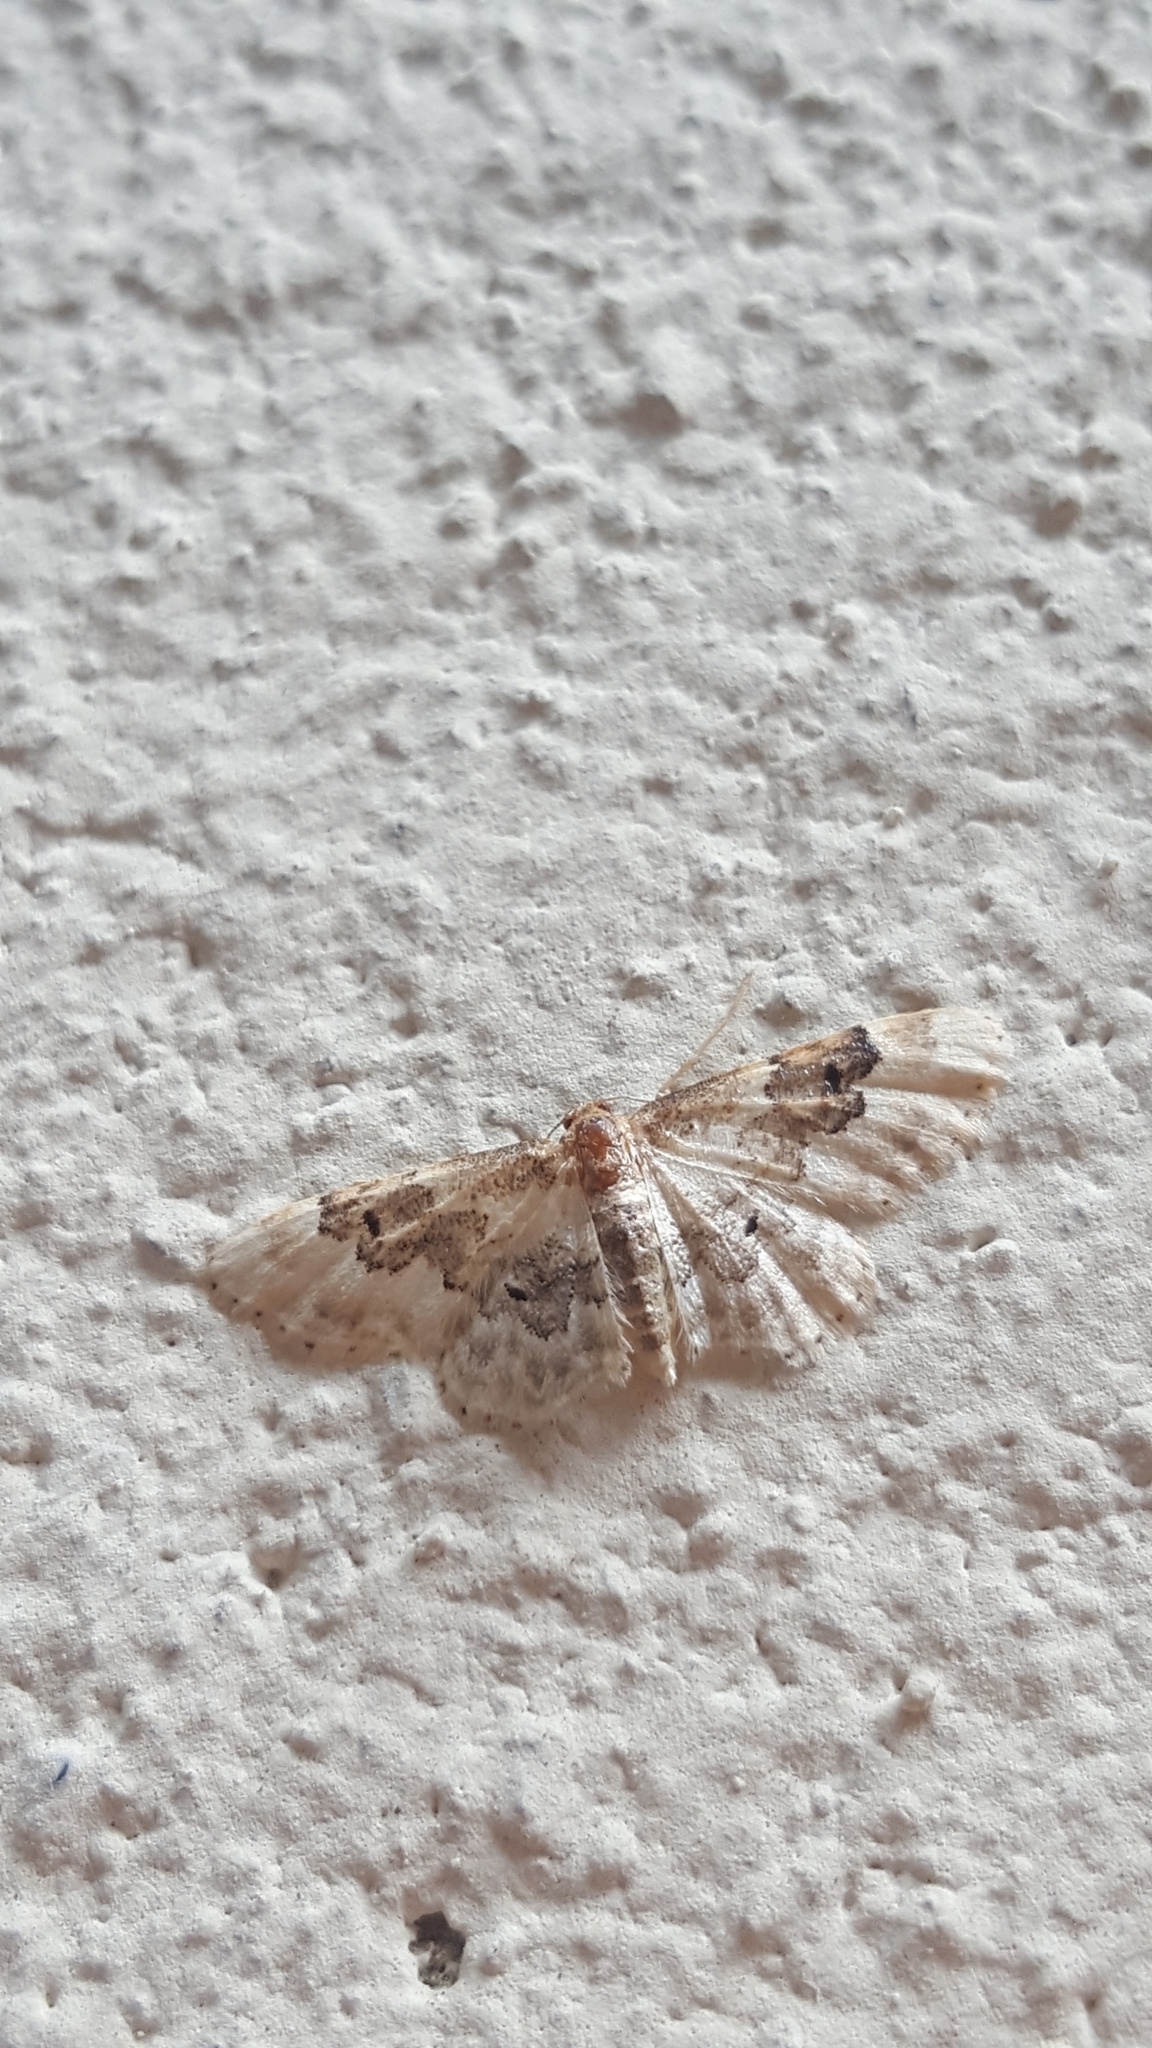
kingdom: Animalia
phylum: Arthropoda
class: Insecta
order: Lepidoptera
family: Geometridae
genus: Idaea
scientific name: Idaea rusticata
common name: Least carpet
